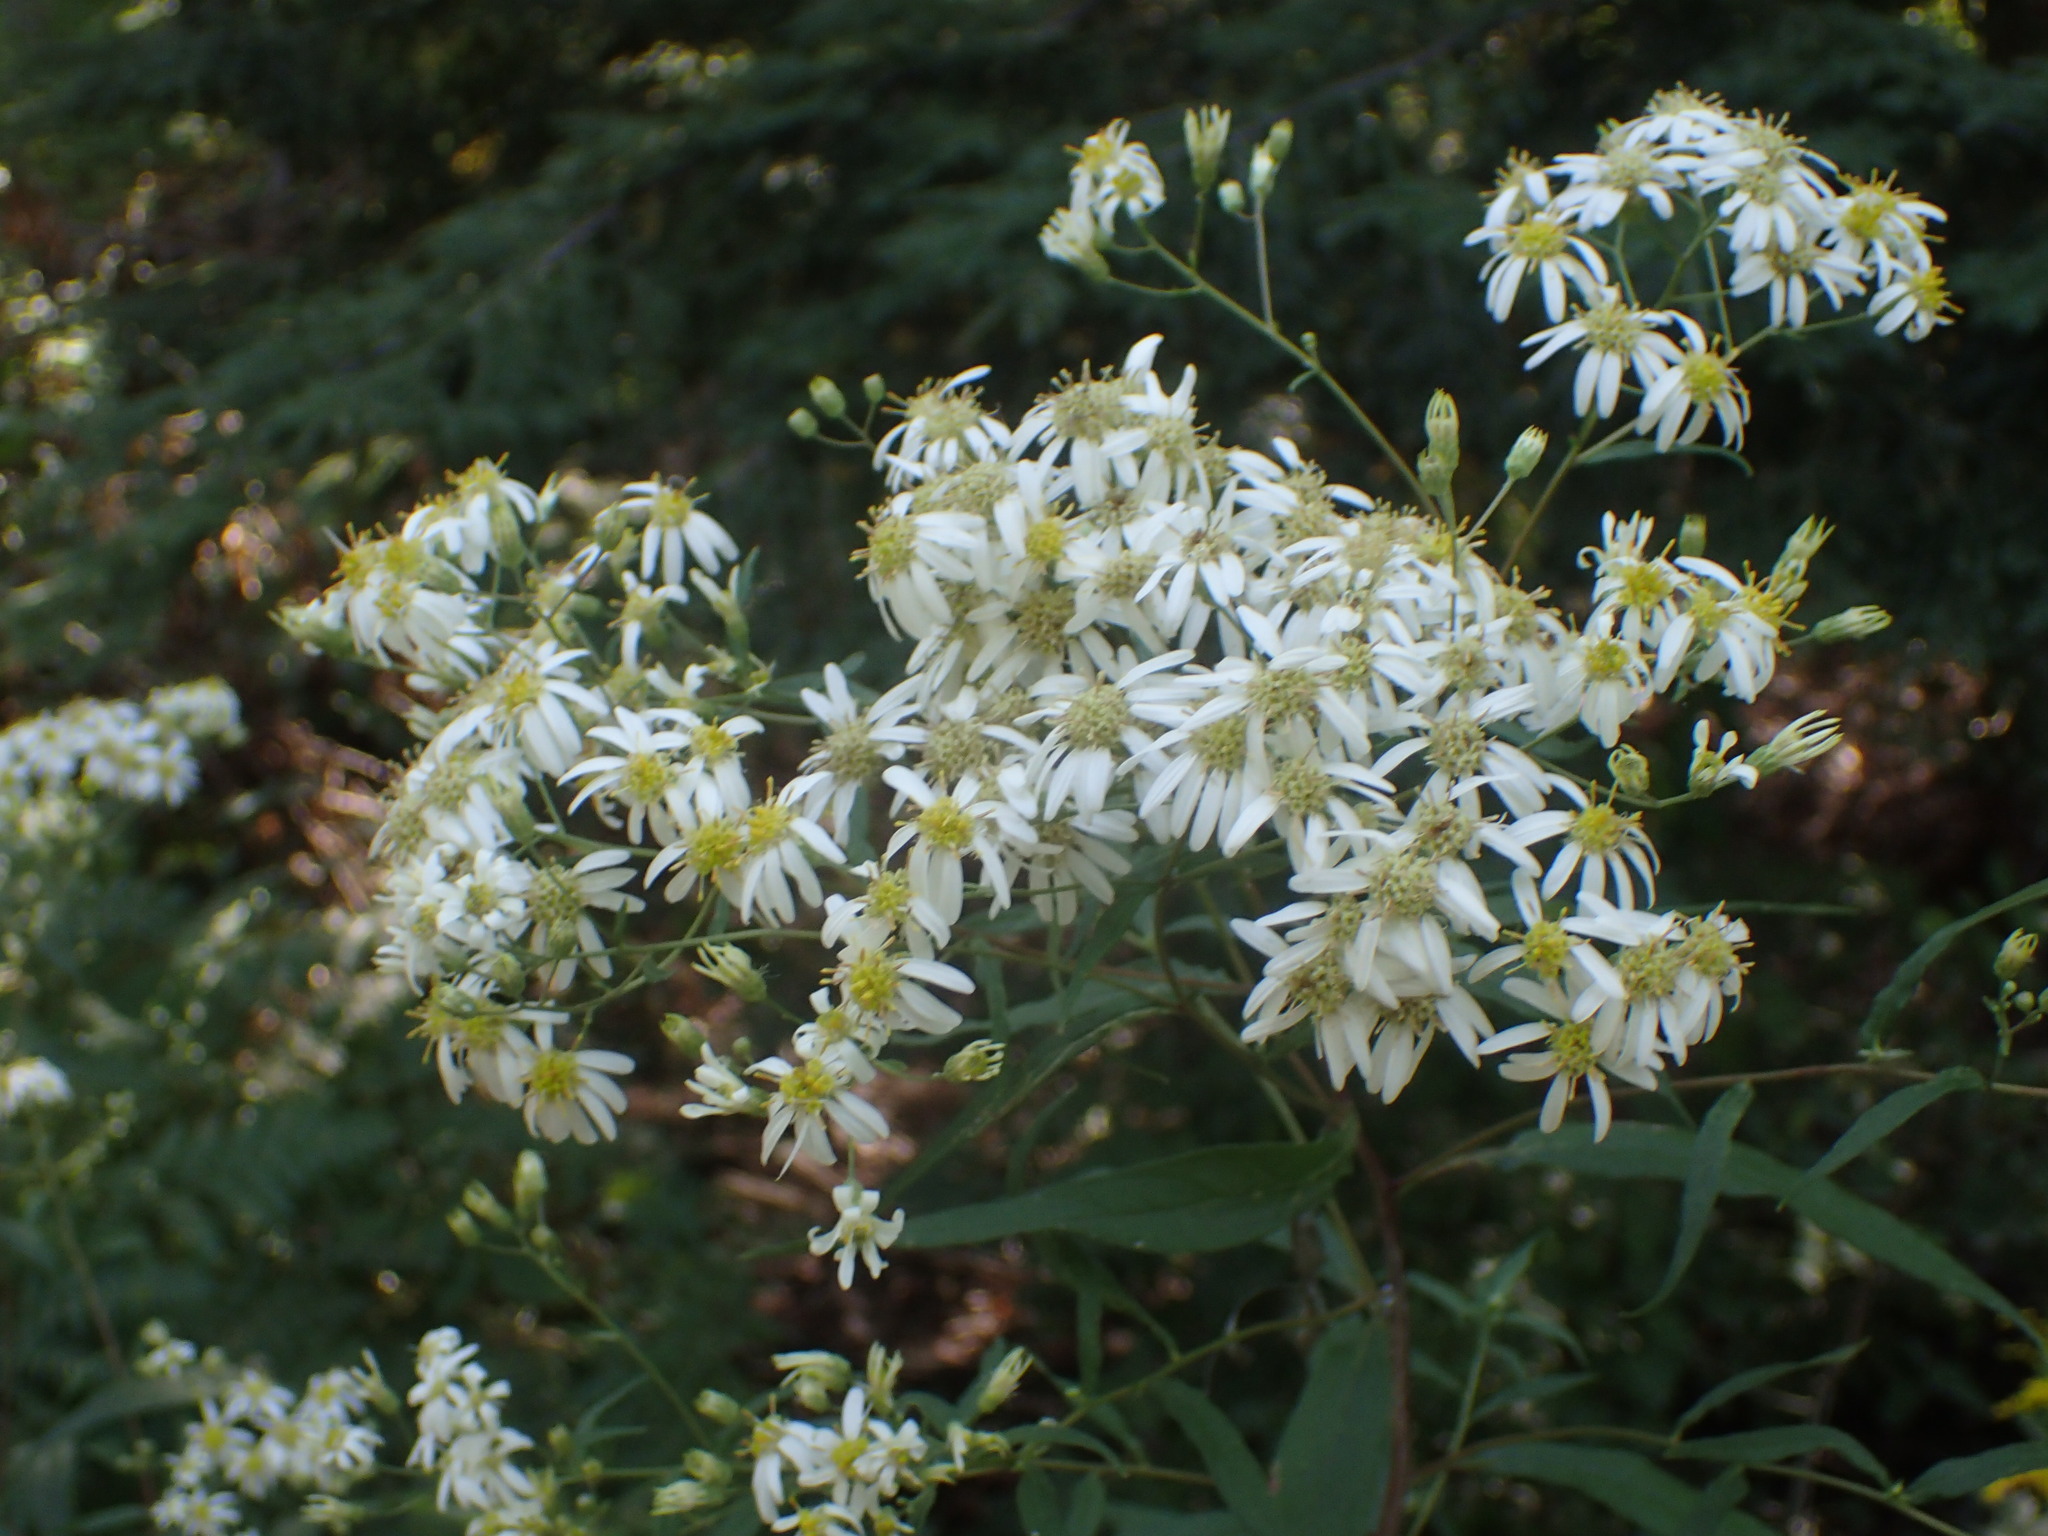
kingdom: Plantae
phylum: Tracheophyta
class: Magnoliopsida
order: Asterales
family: Asteraceae
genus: Doellingeria
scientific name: Doellingeria umbellata
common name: Flat-top white aster
